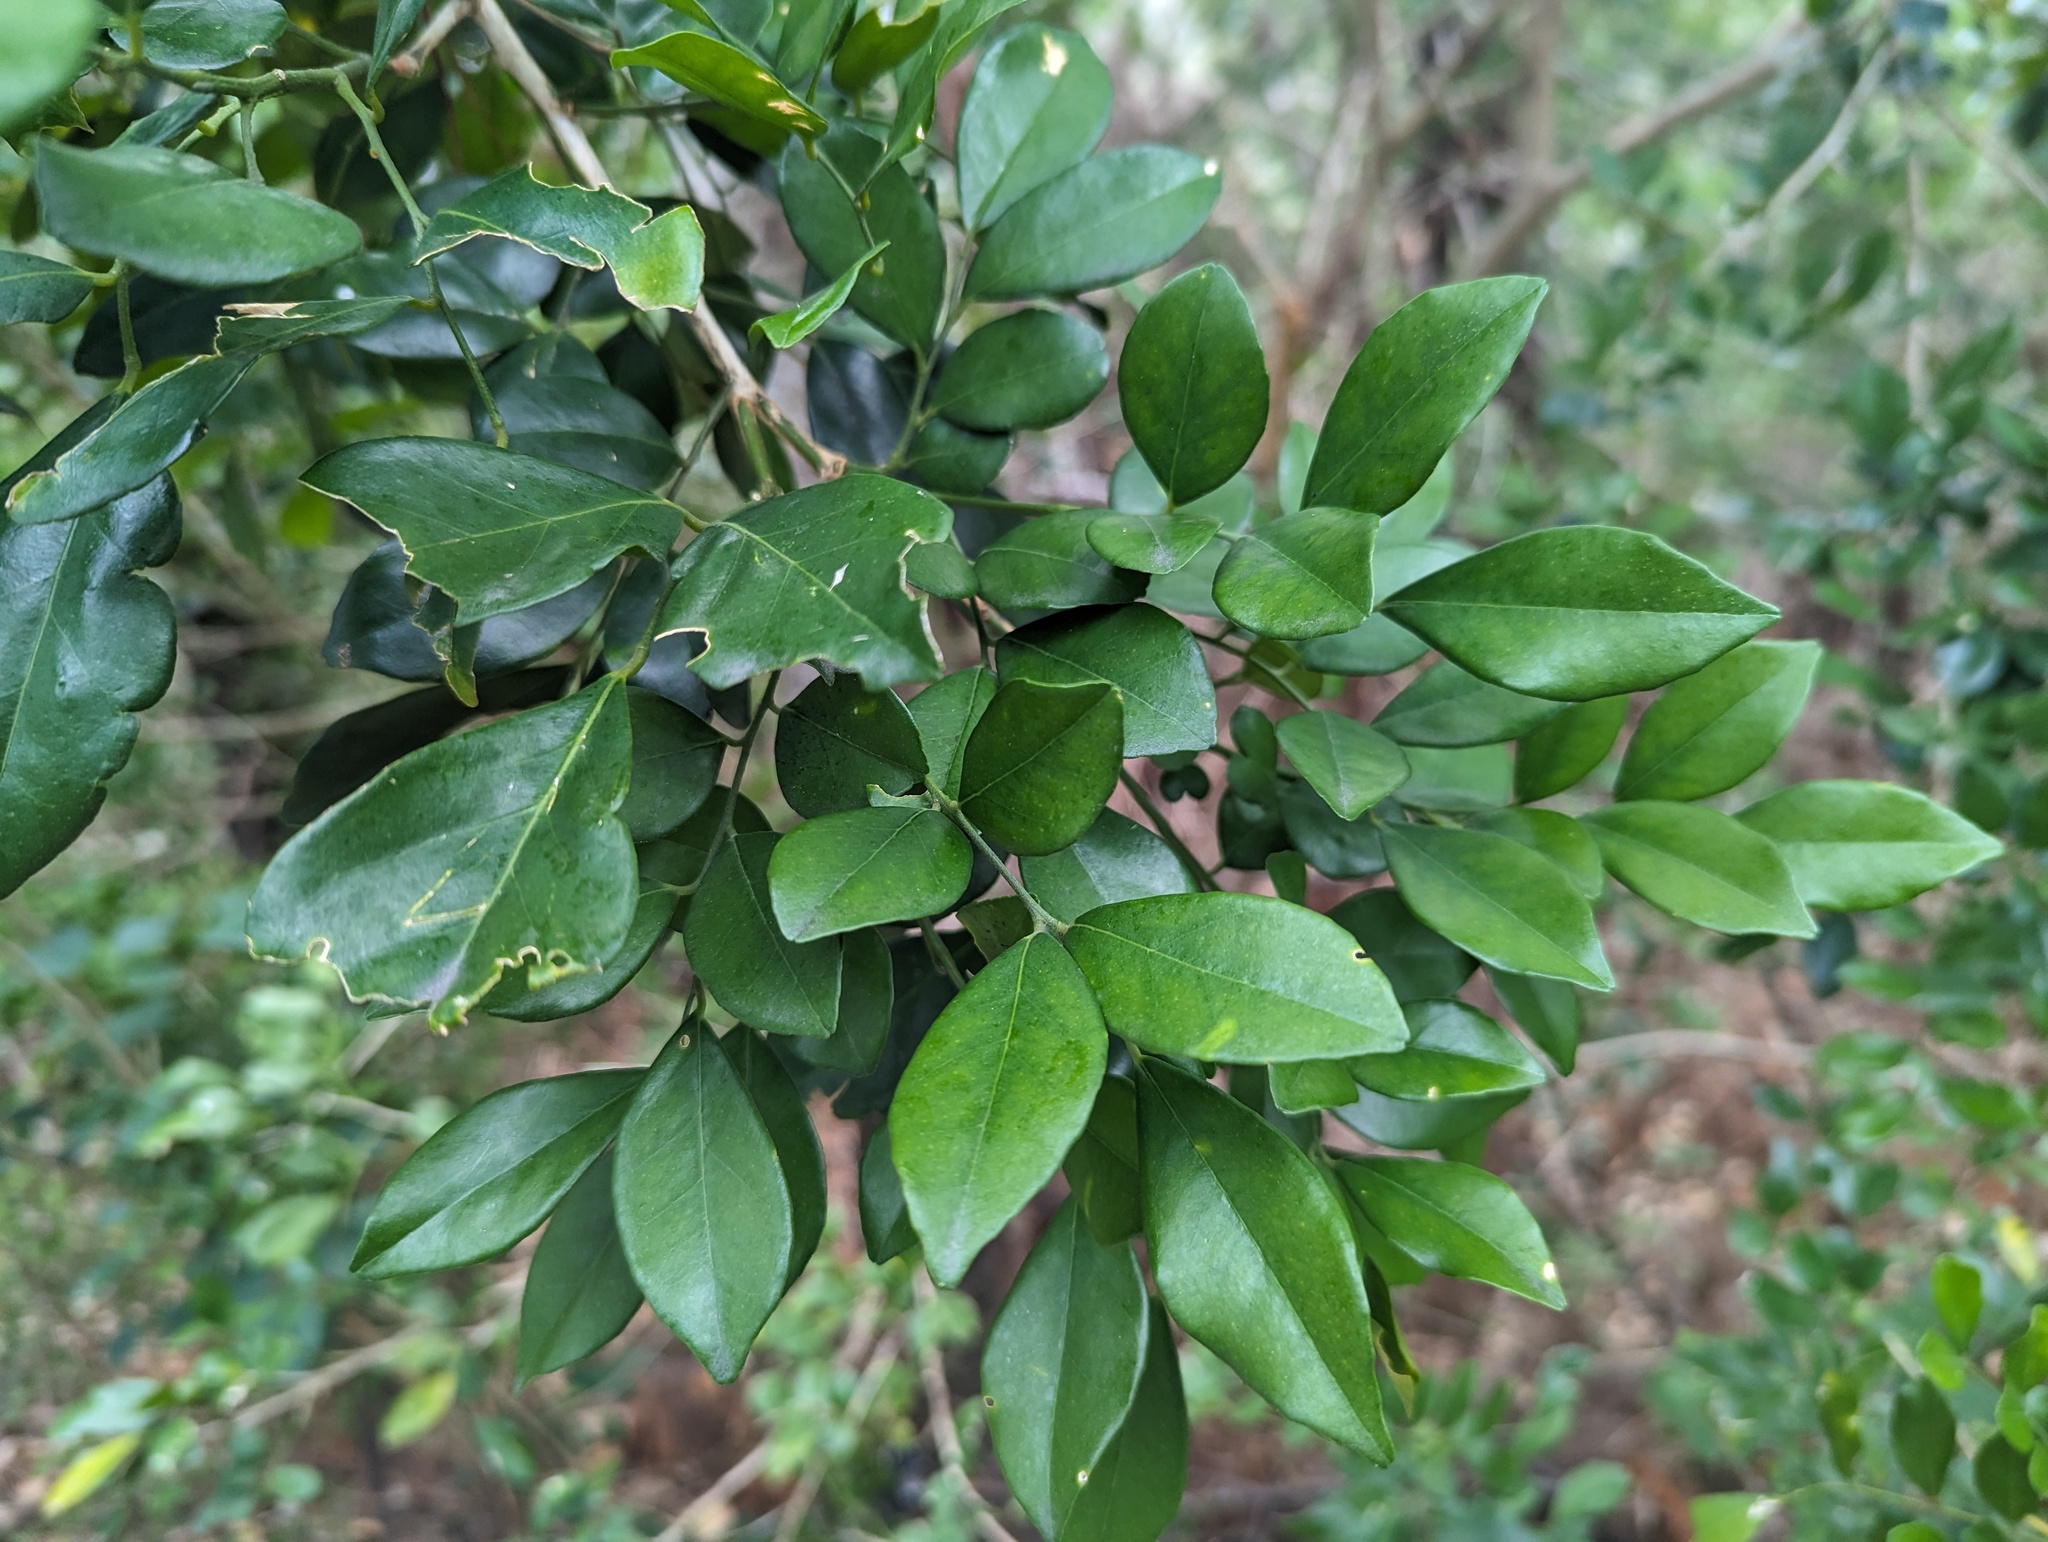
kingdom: Plantae
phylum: Tracheophyta
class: Magnoliopsida
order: Sapindales
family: Rutaceae
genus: Murraya
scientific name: Murraya paniculata
